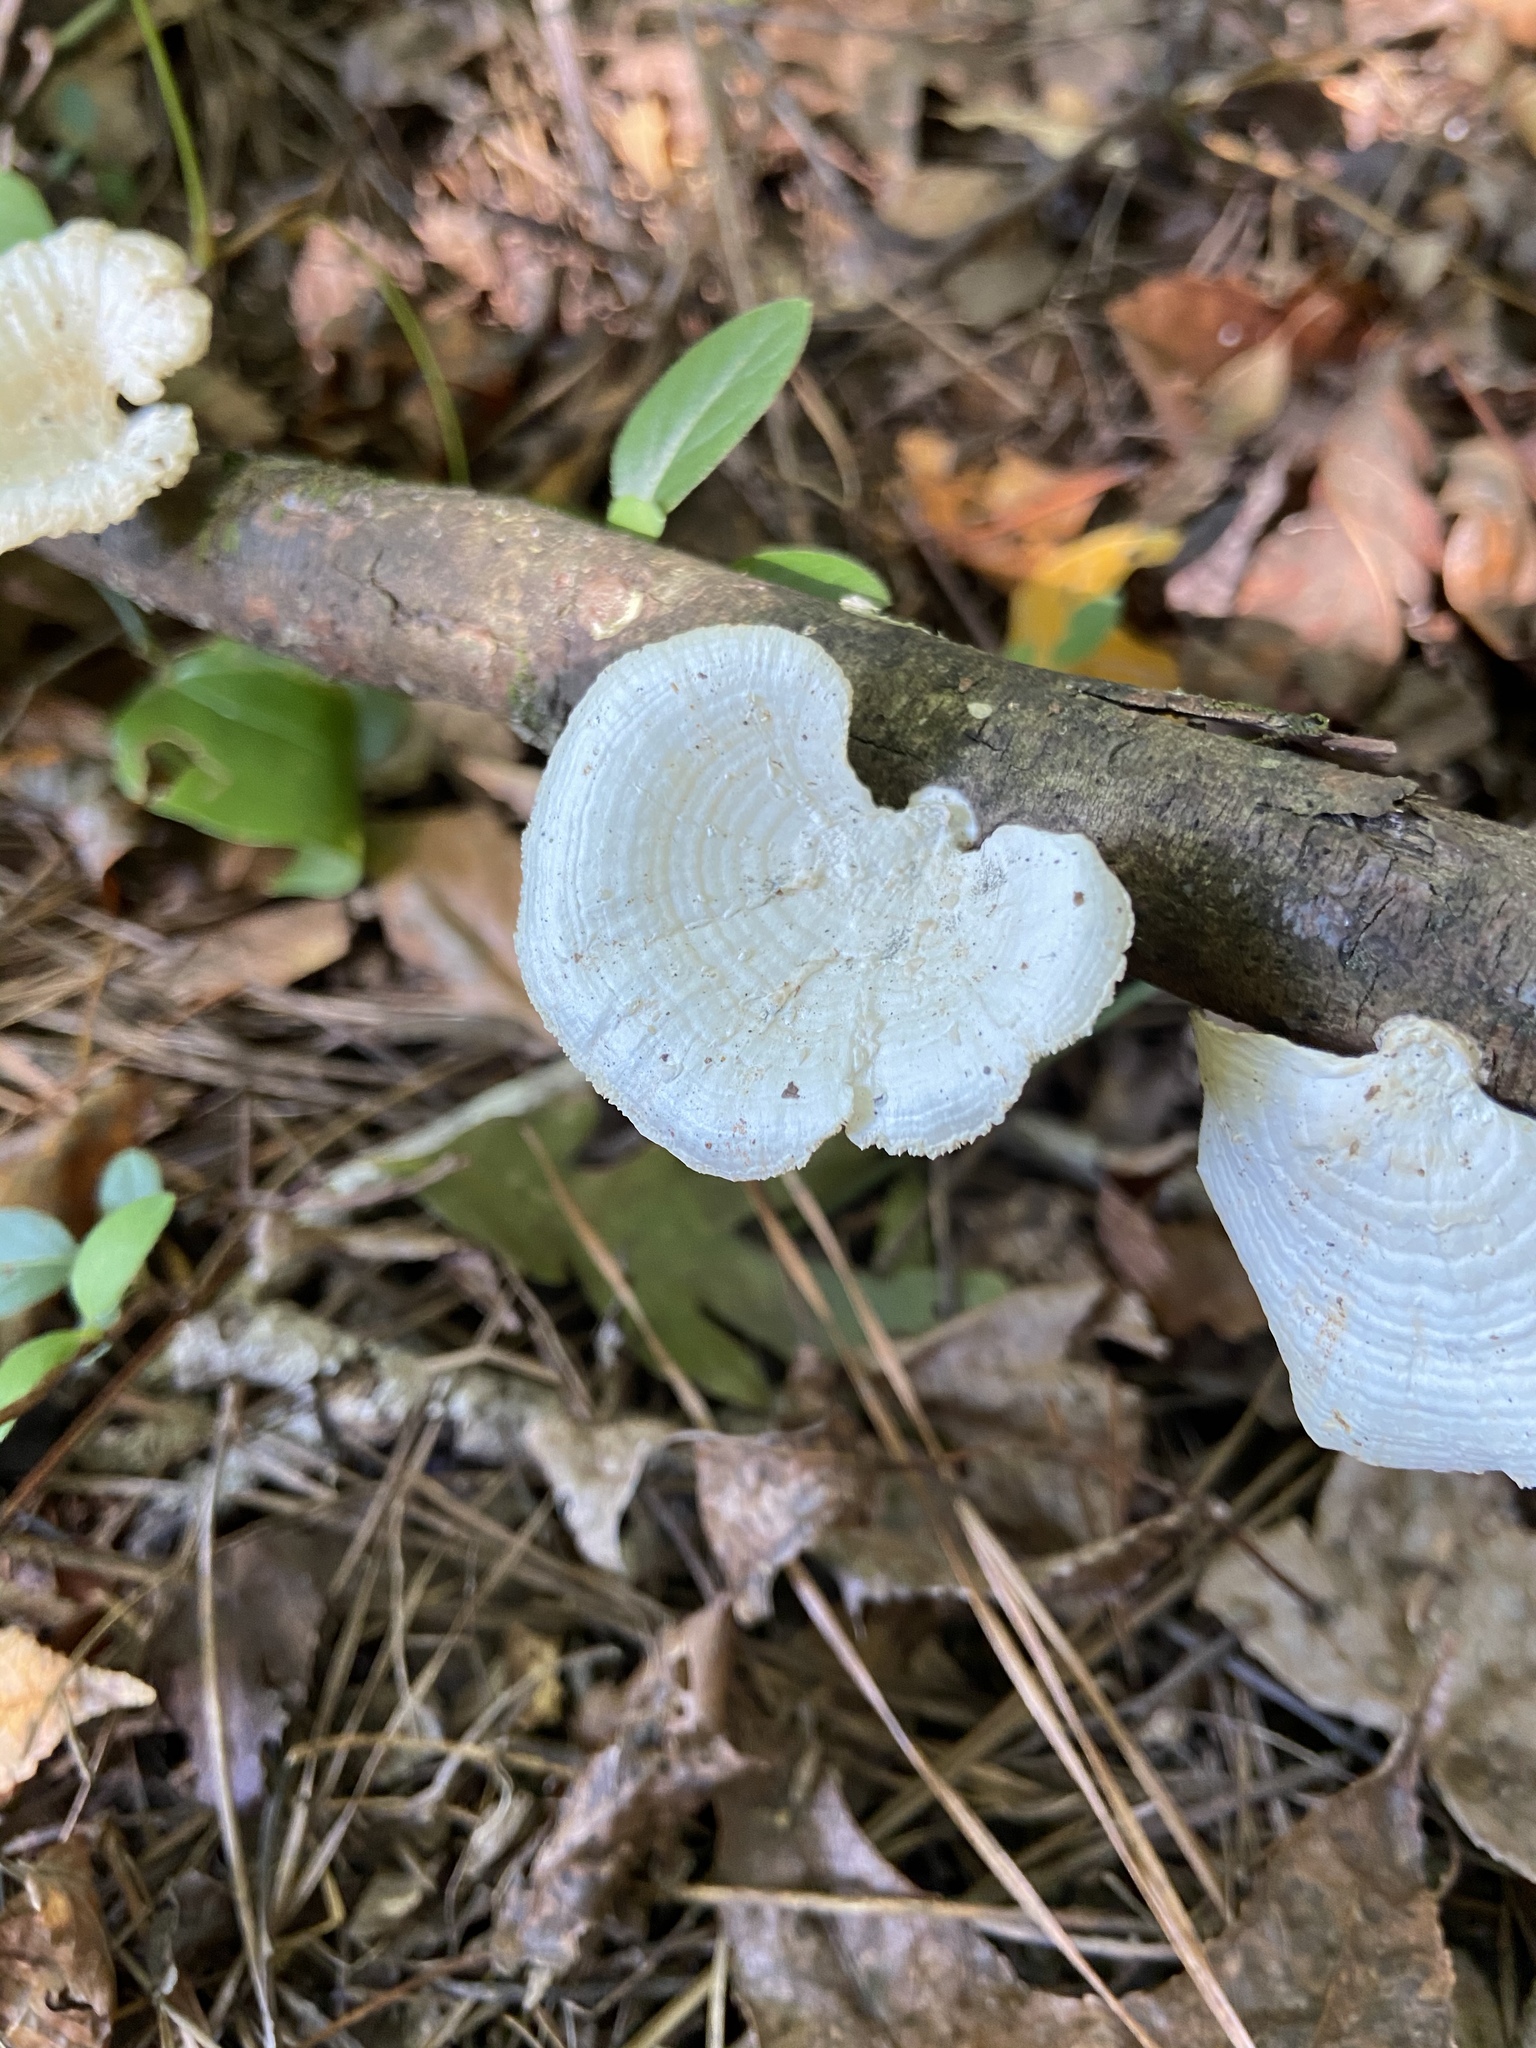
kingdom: Fungi
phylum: Basidiomycota
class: Agaricomycetes
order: Polyporales
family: Polyporaceae
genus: Poronidulus
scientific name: Poronidulus conchifer
